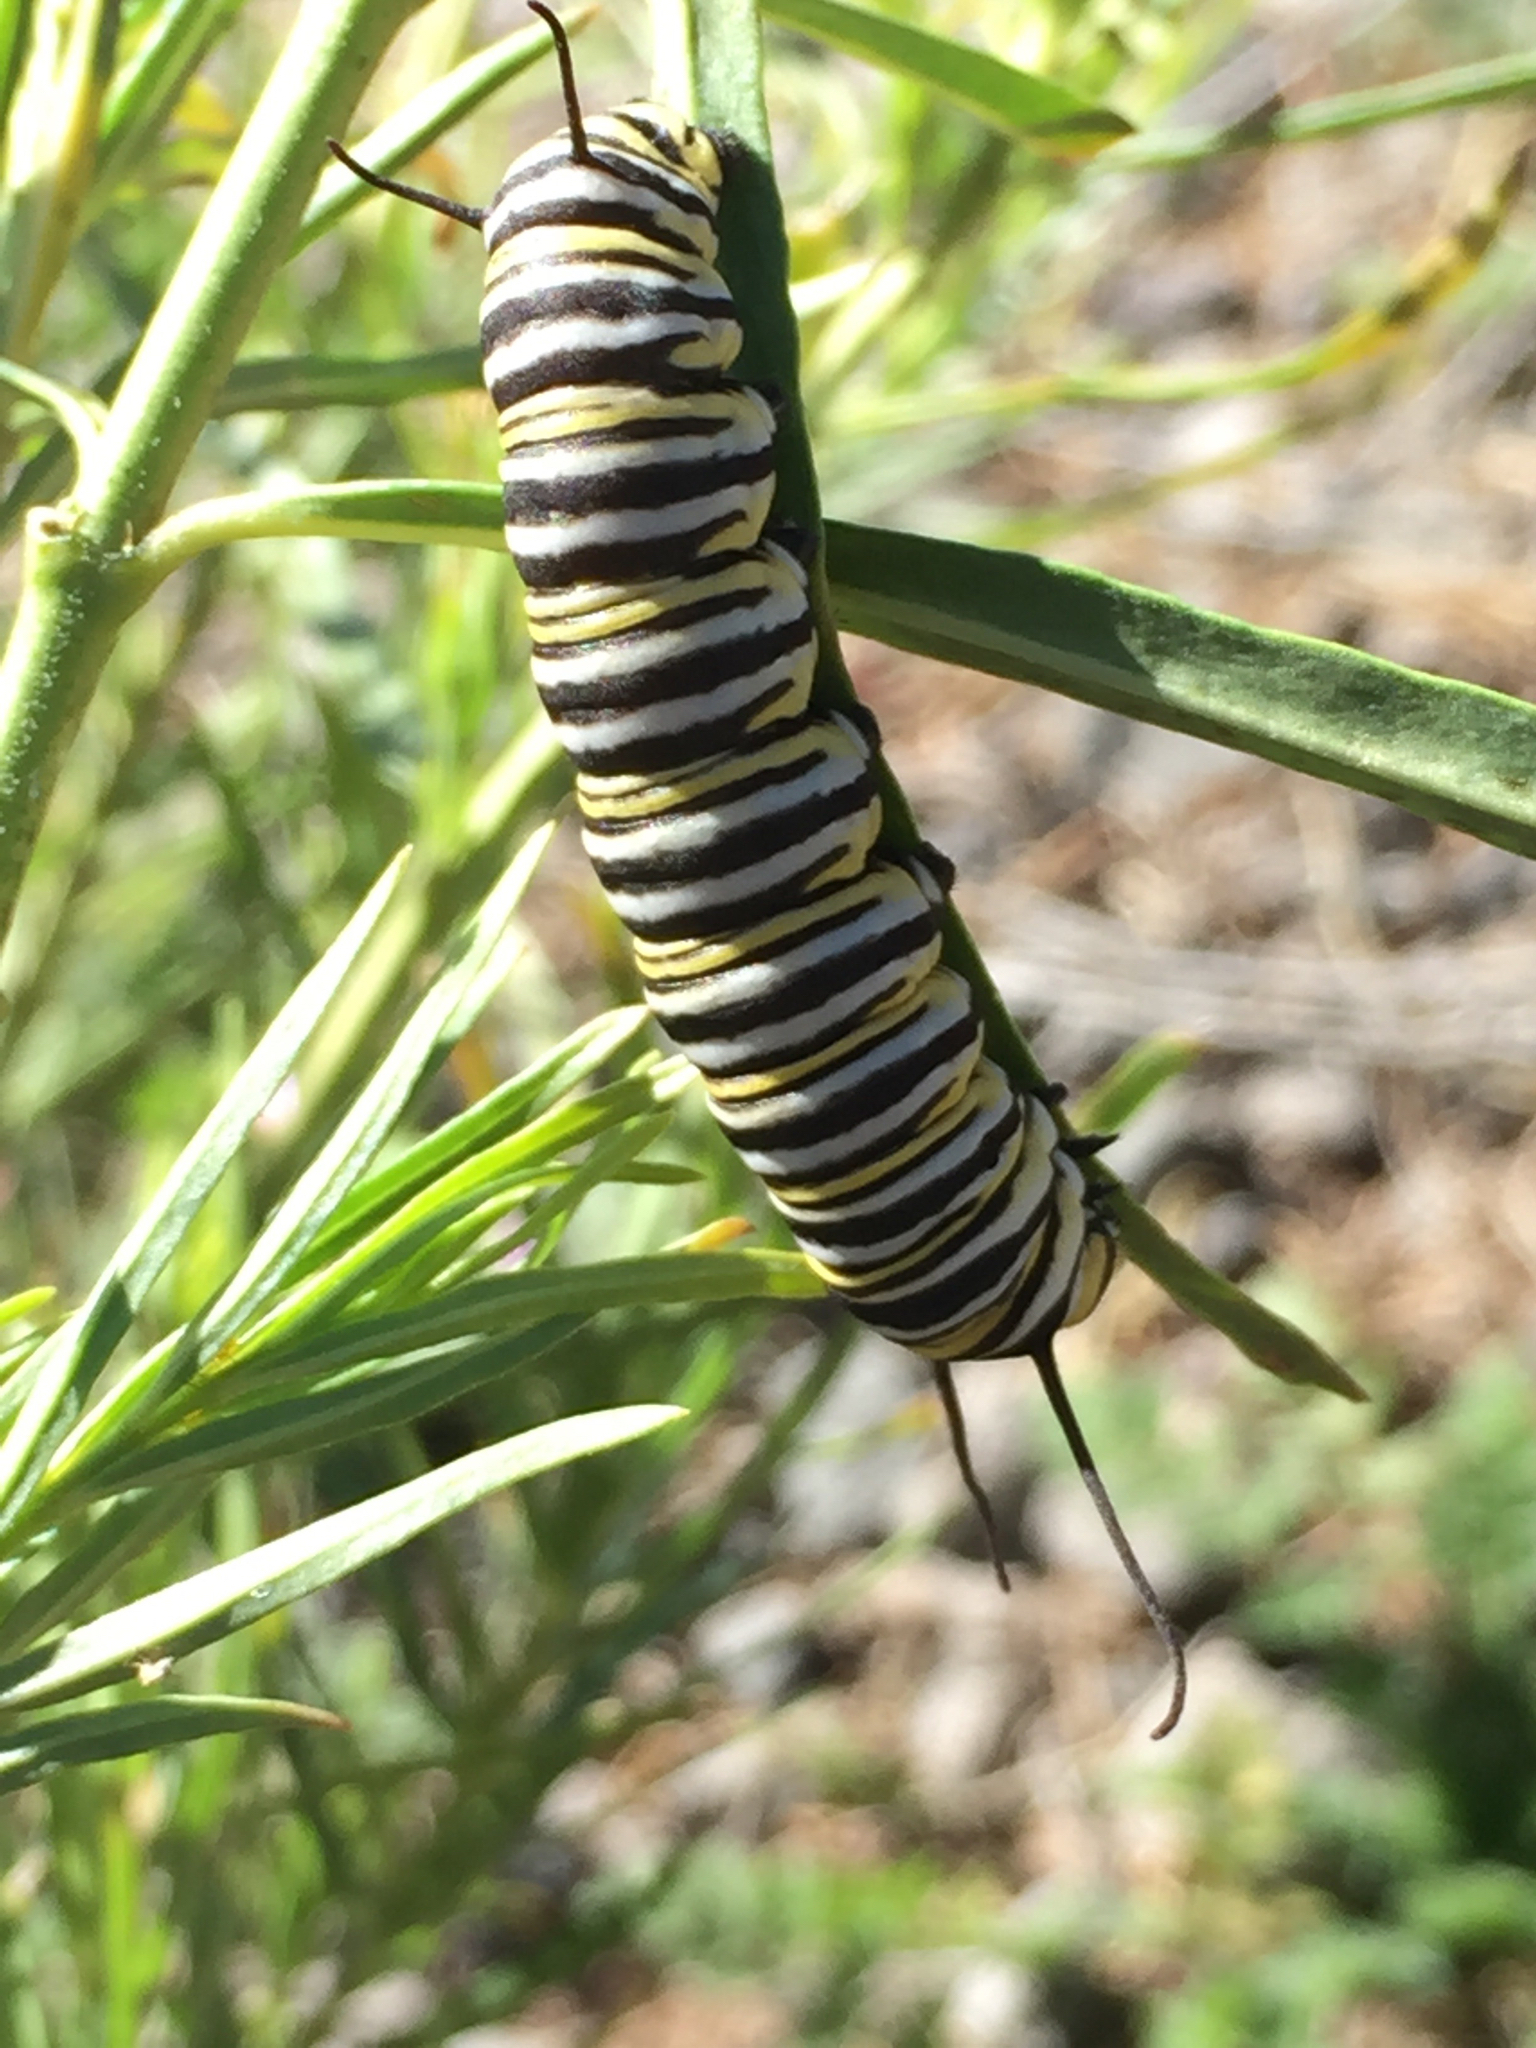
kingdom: Animalia
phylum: Arthropoda
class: Insecta
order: Lepidoptera
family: Nymphalidae
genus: Danaus
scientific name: Danaus plexippus
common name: Monarch
